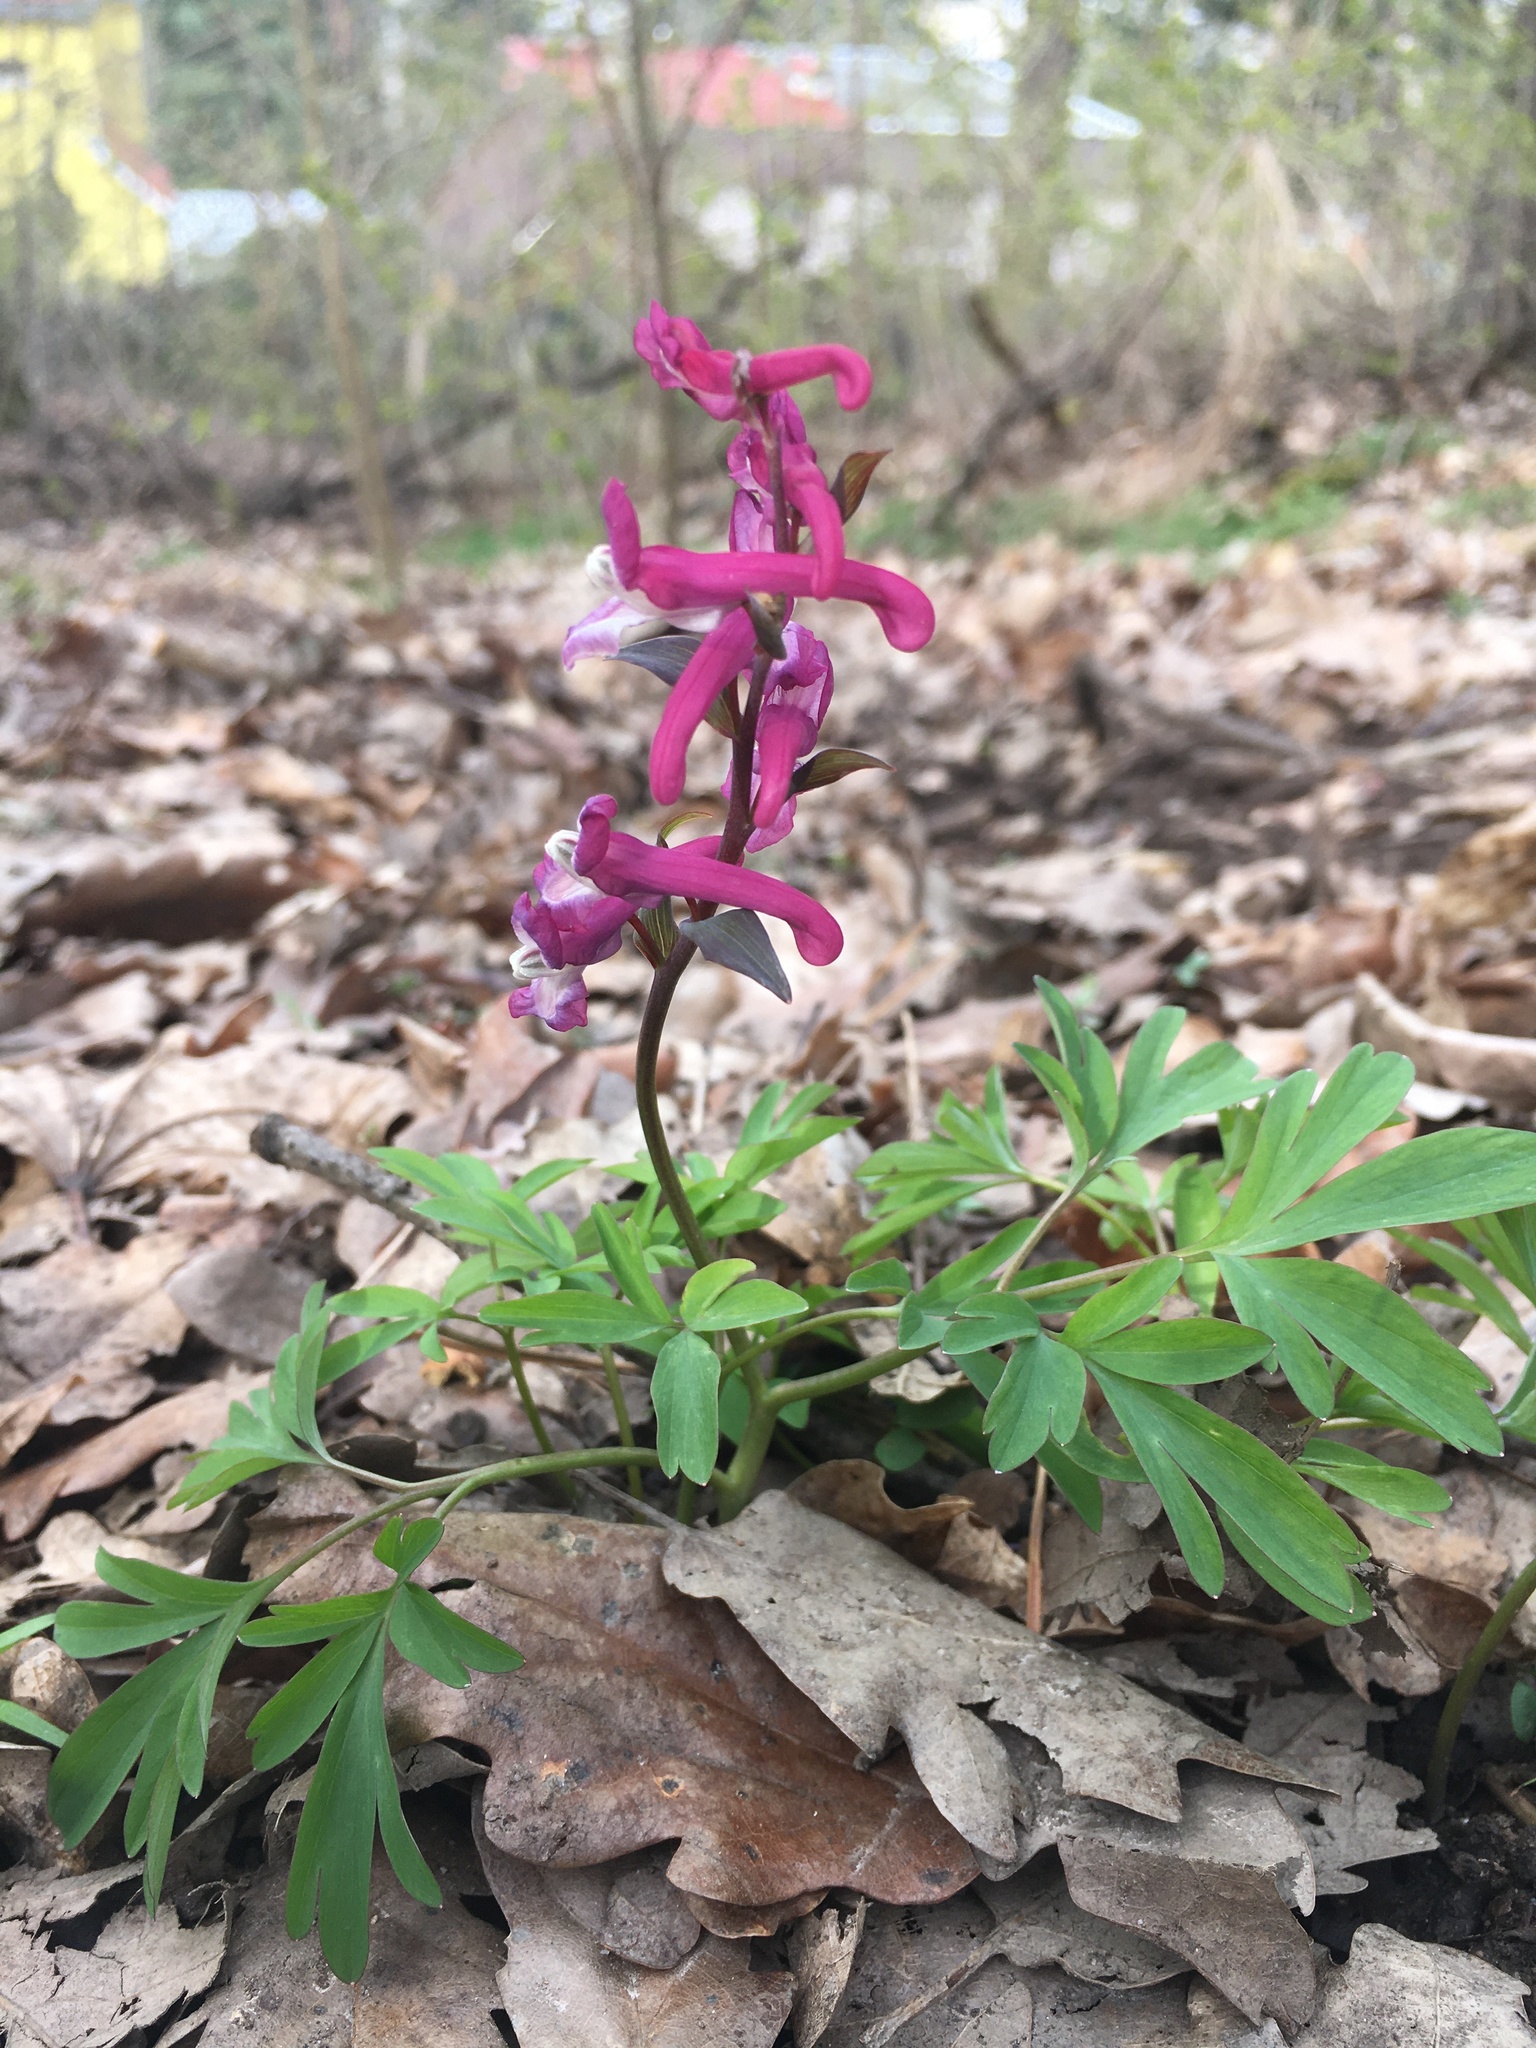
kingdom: Plantae
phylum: Tracheophyta
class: Magnoliopsida
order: Ranunculales
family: Papaveraceae
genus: Corydalis
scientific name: Corydalis cava
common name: Hollowroot
